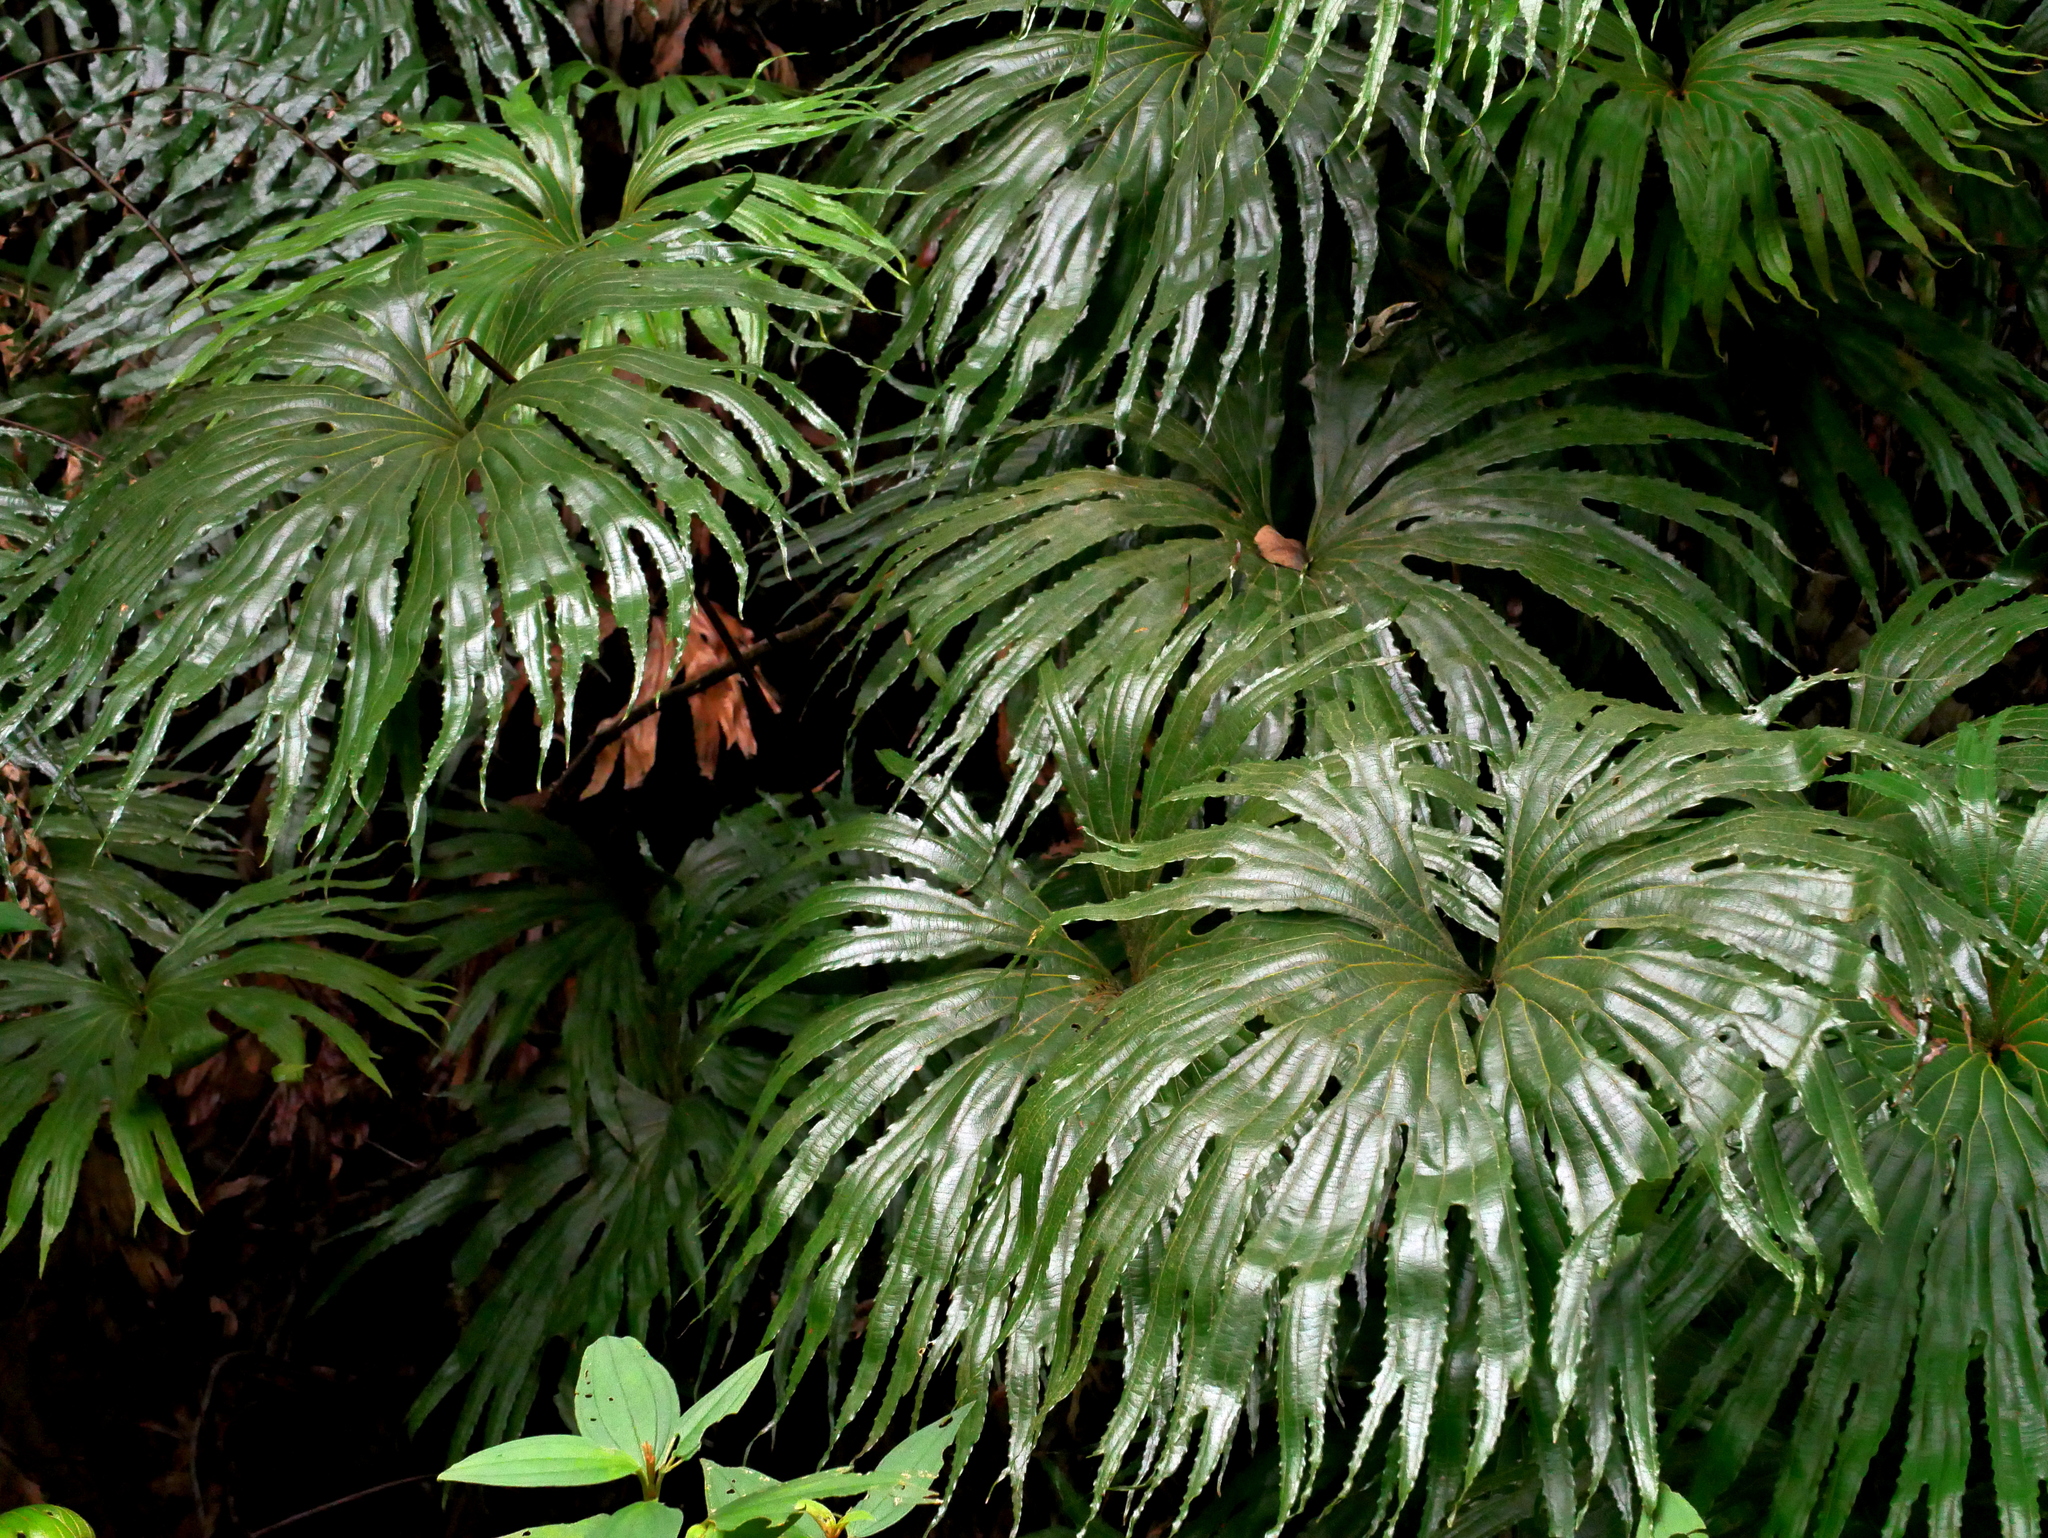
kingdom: Plantae
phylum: Tracheophyta
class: Polypodiopsida
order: Gleicheniales
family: Dipteridaceae
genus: Dipteris
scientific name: Dipteris conjugata
